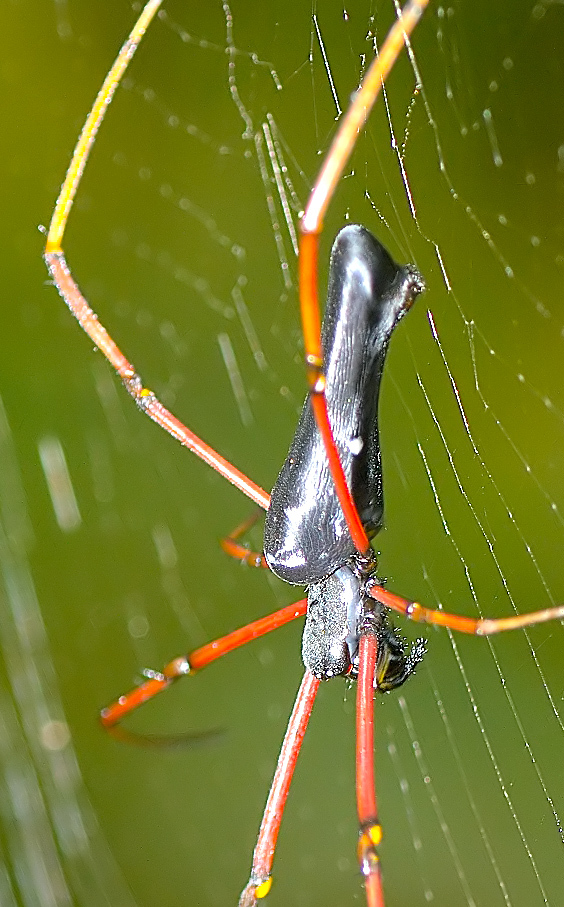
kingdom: Animalia
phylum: Arthropoda
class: Arachnida
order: Araneae
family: Araneidae
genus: Nephila
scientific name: Nephila kuhli
